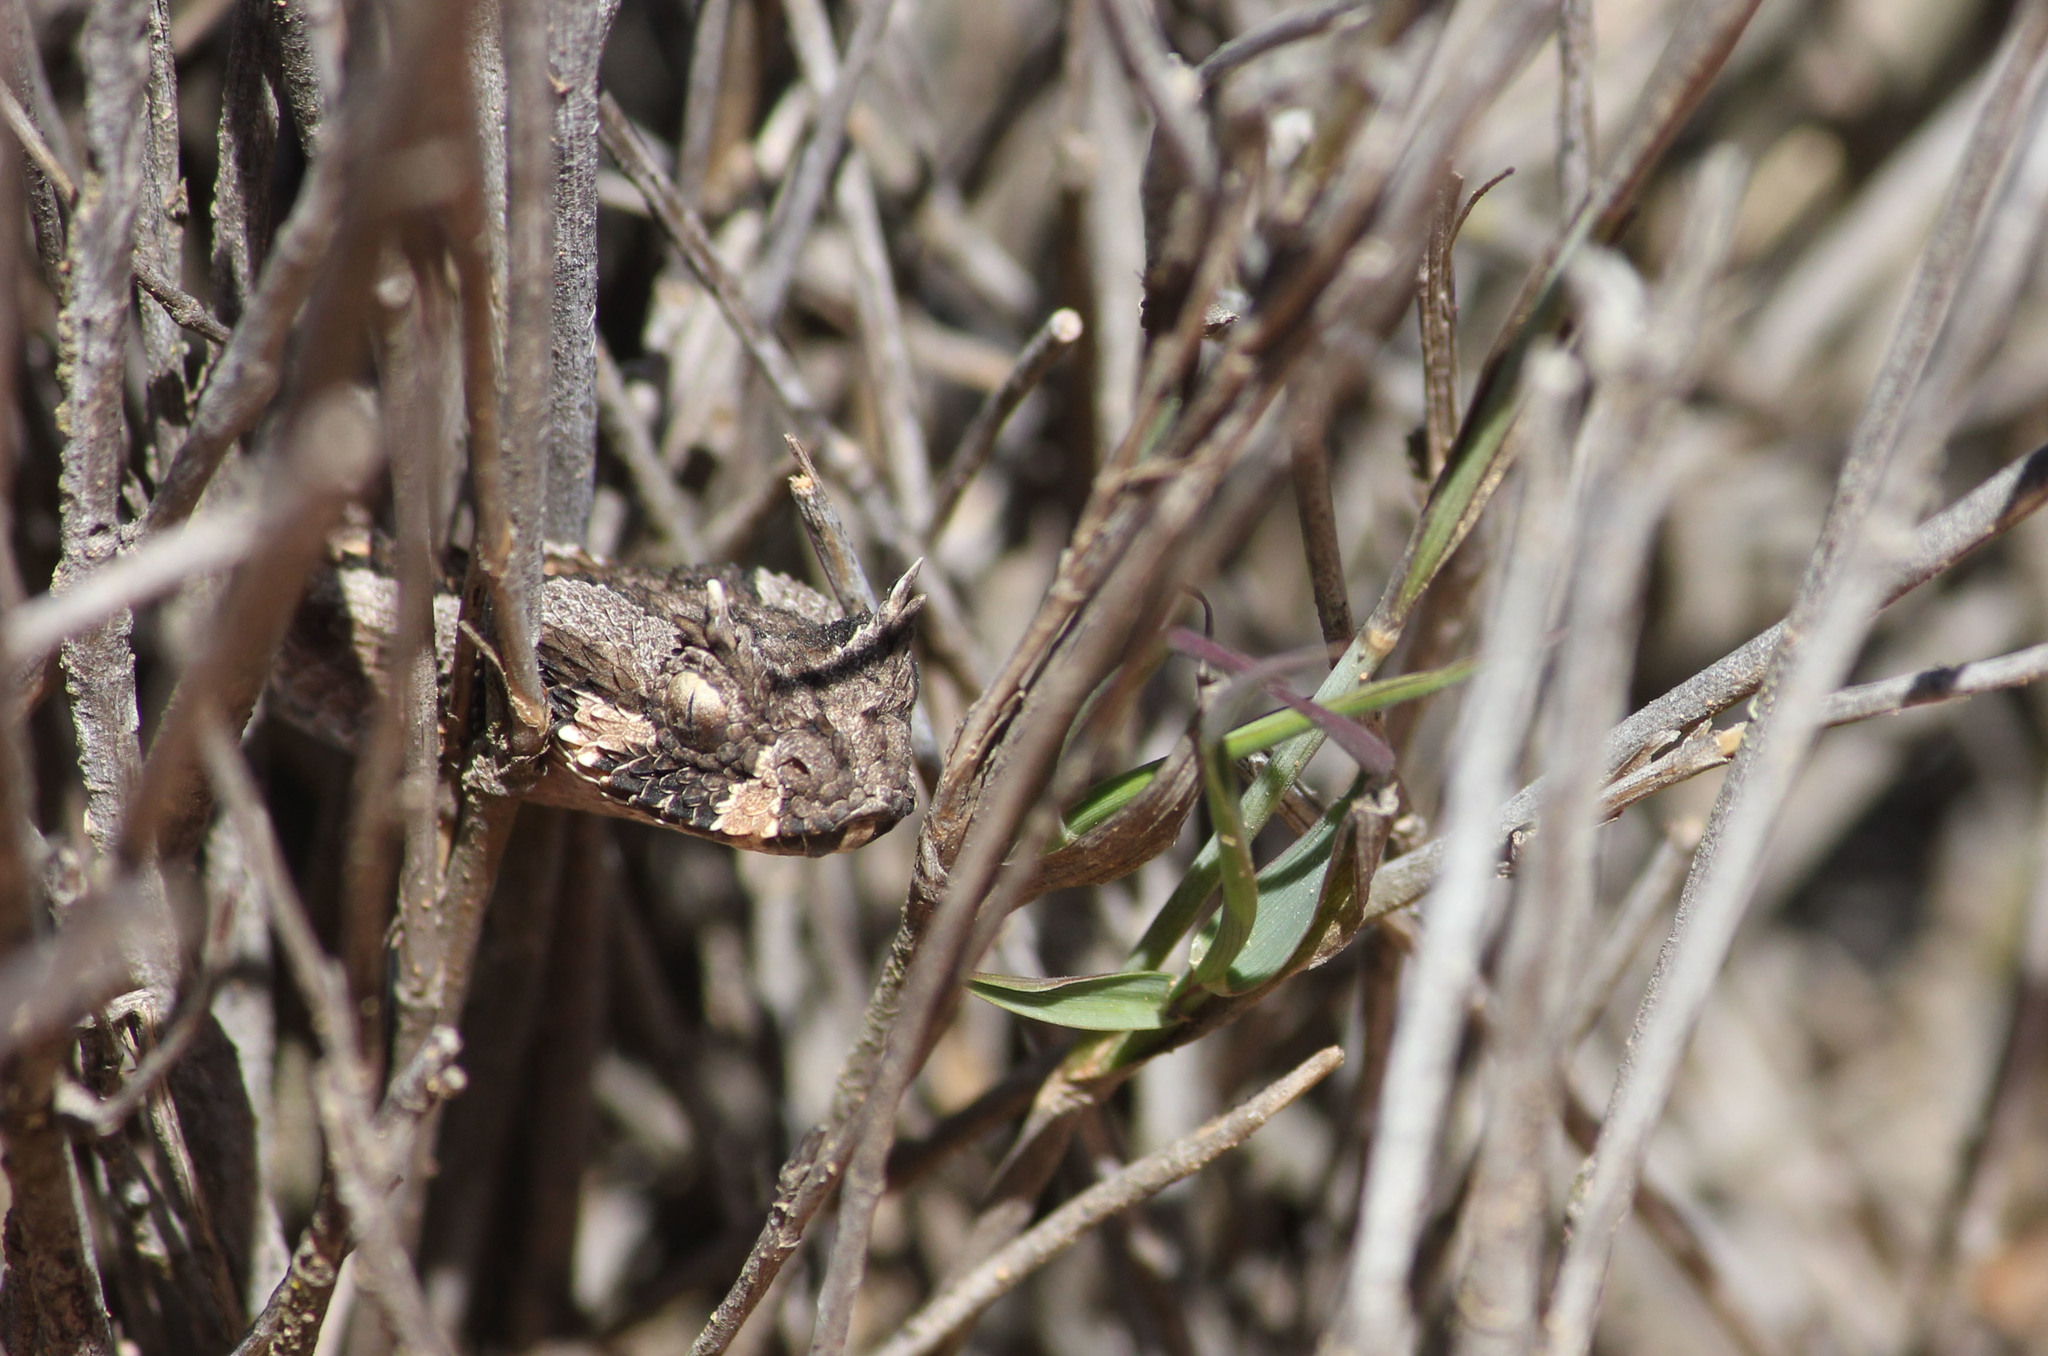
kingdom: Animalia
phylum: Chordata
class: Squamata
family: Viperidae
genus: Bitis
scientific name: Bitis cornuta
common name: Many-horned adder
